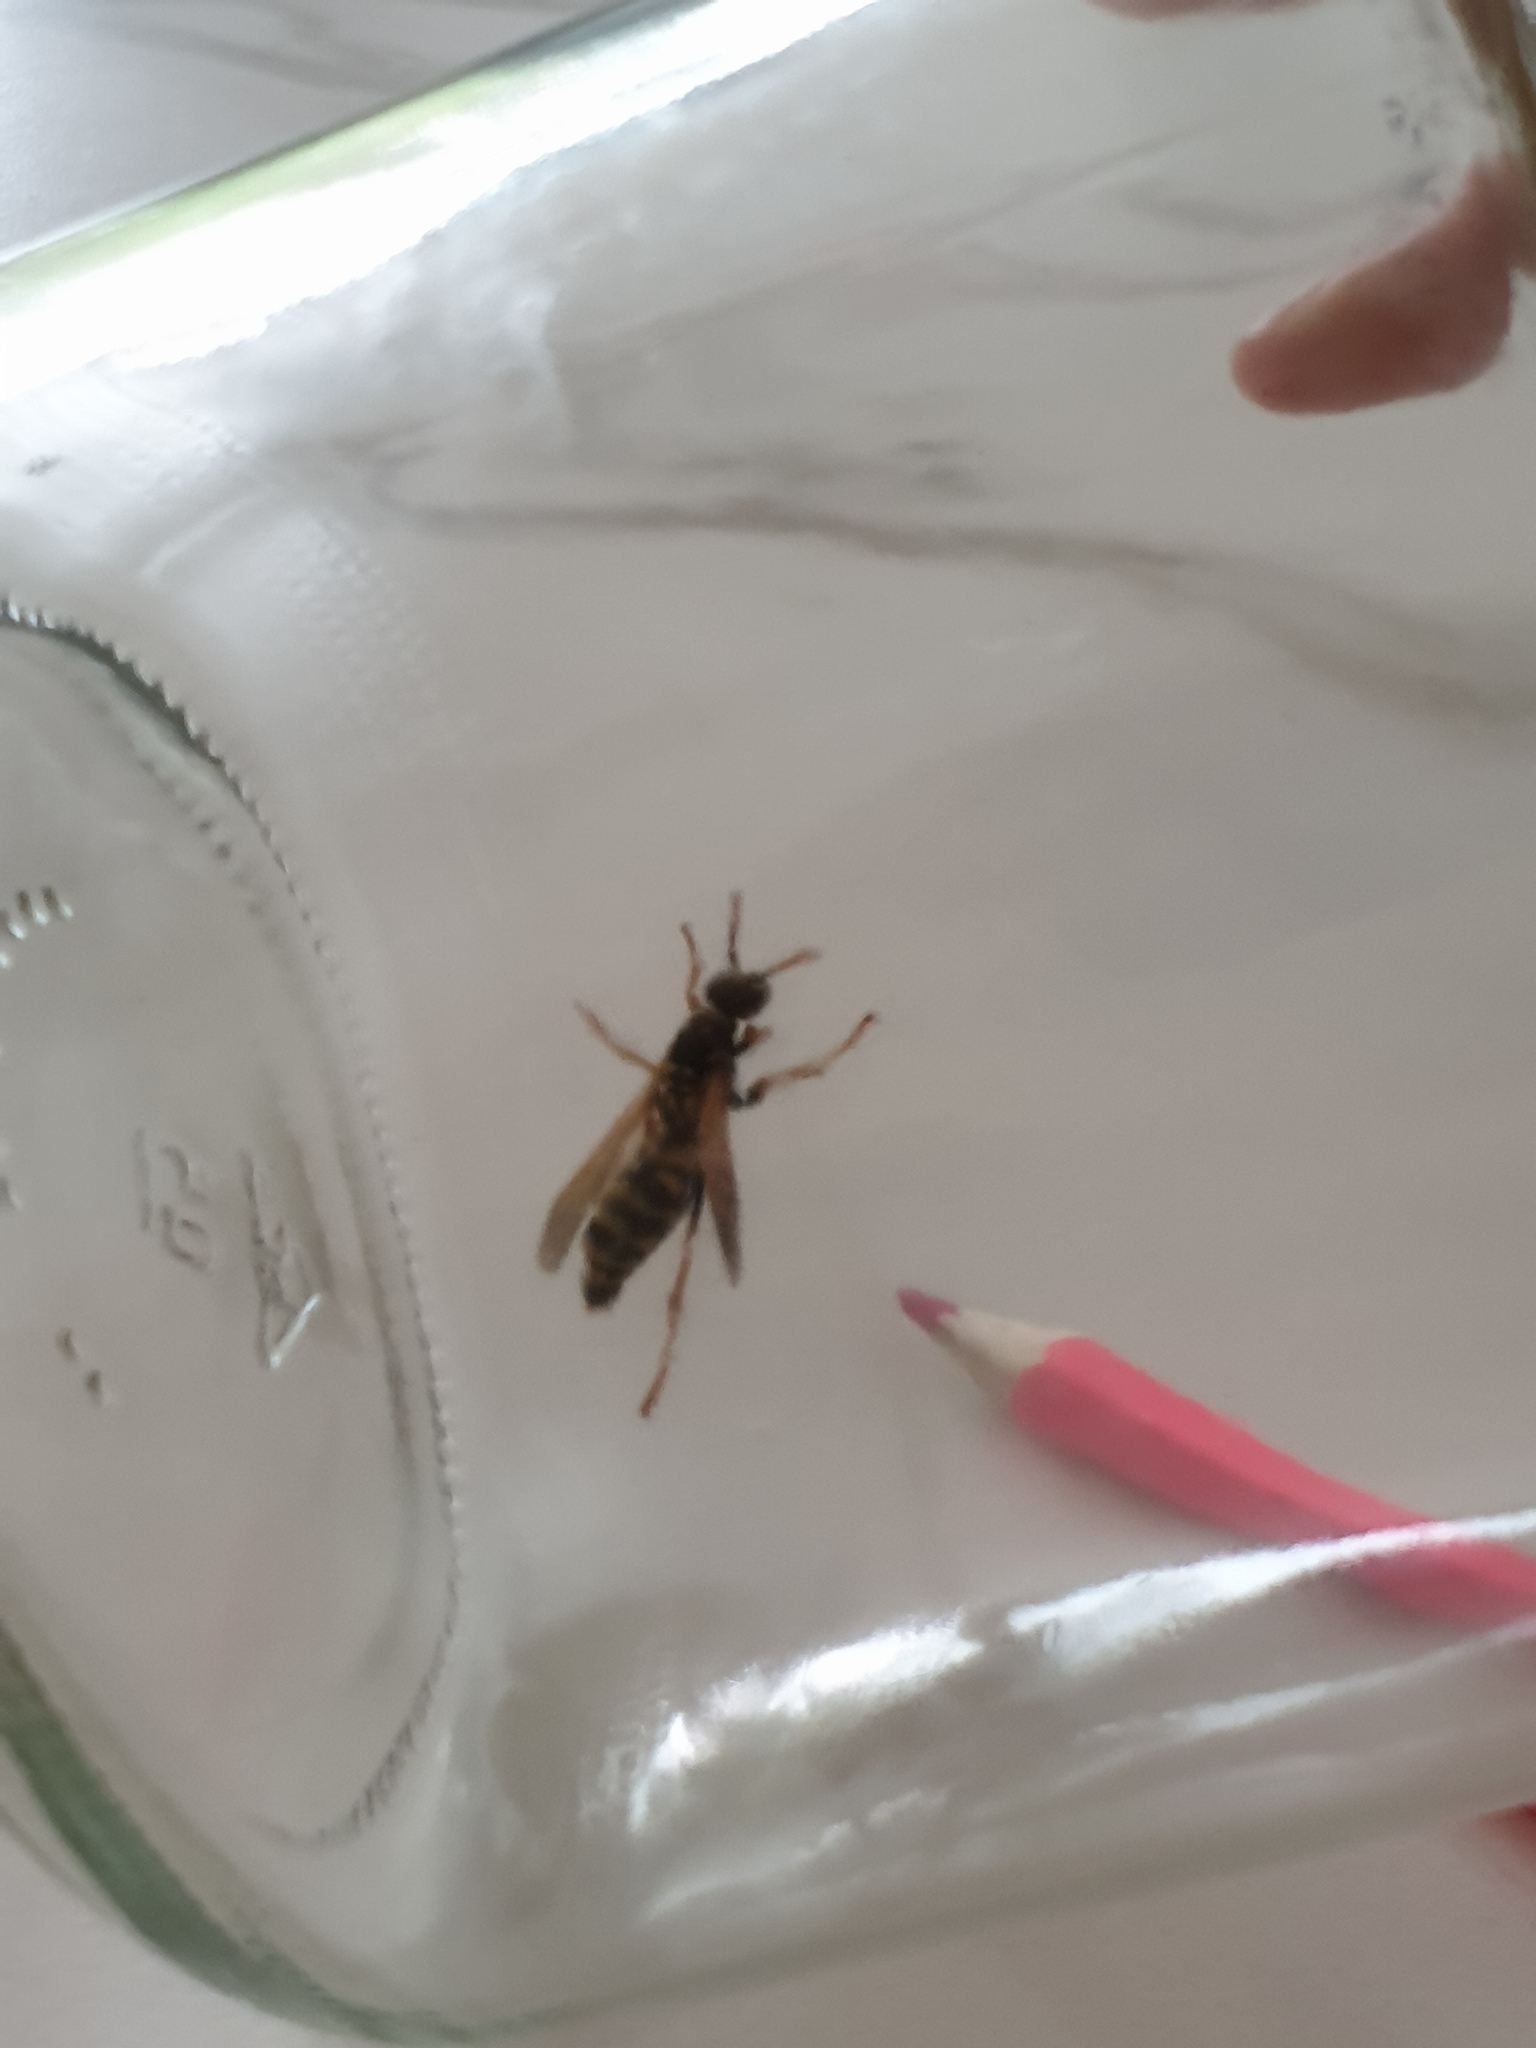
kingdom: Animalia
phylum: Arthropoda
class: Insecta
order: Hymenoptera
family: Eumenidae
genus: Polistes
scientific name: Polistes dominula
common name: Paper wasp
